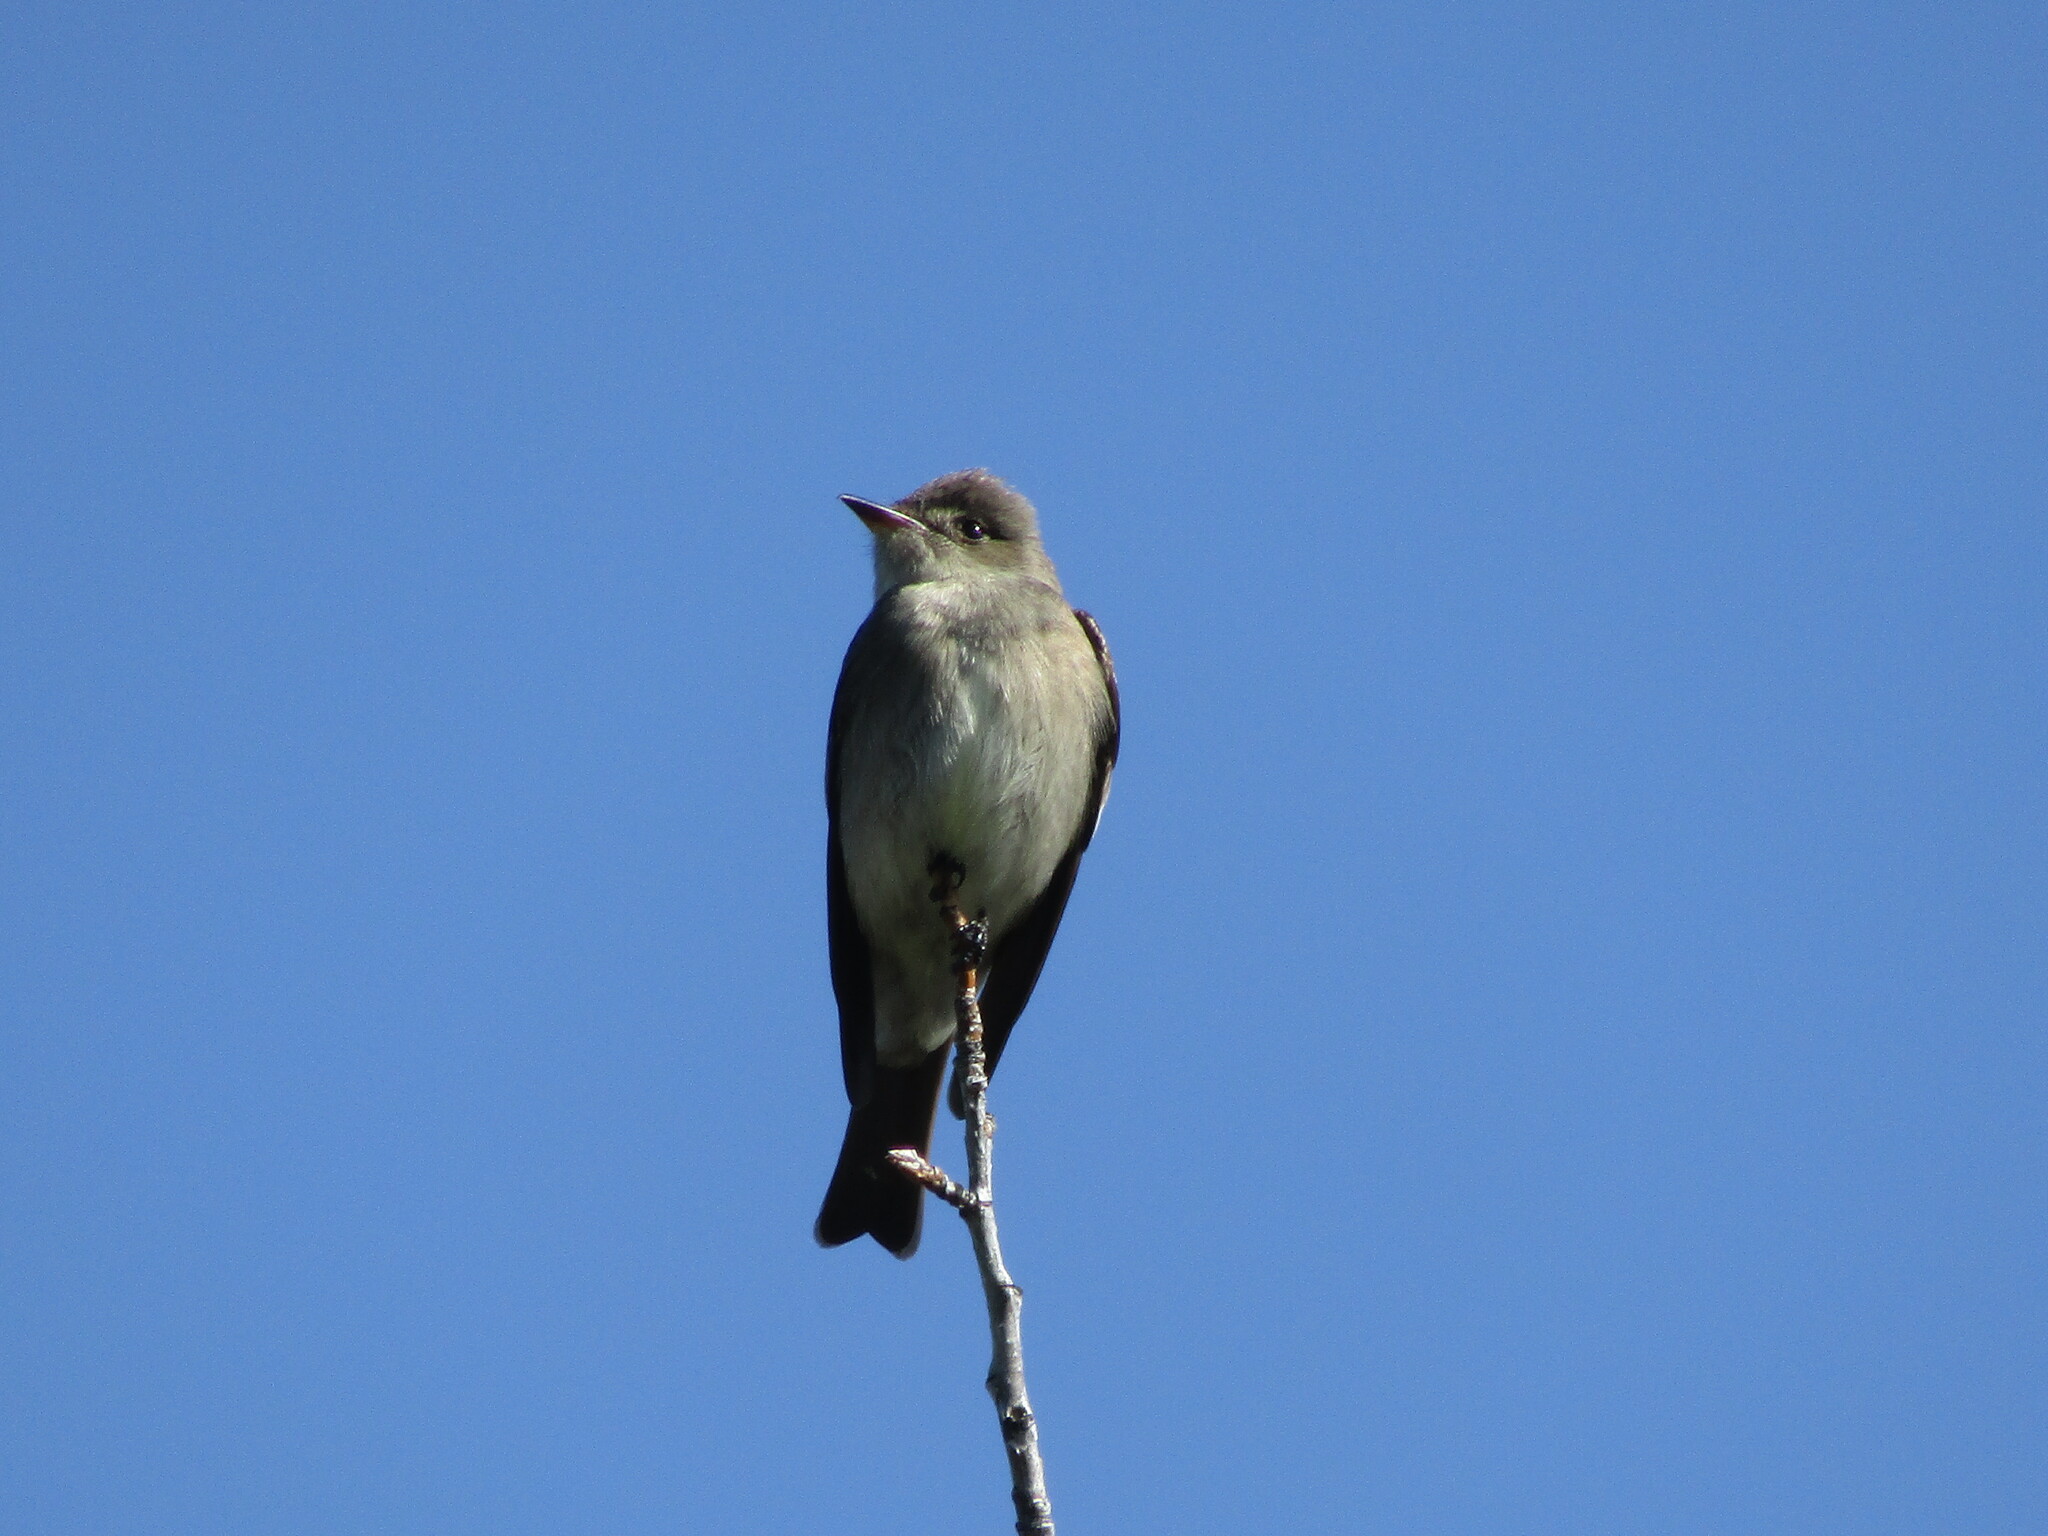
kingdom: Animalia
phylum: Chordata
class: Aves
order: Passeriformes
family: Tyrannidae
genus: Contopus
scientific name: Contopus sordidulus
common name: Western wood-pewee
